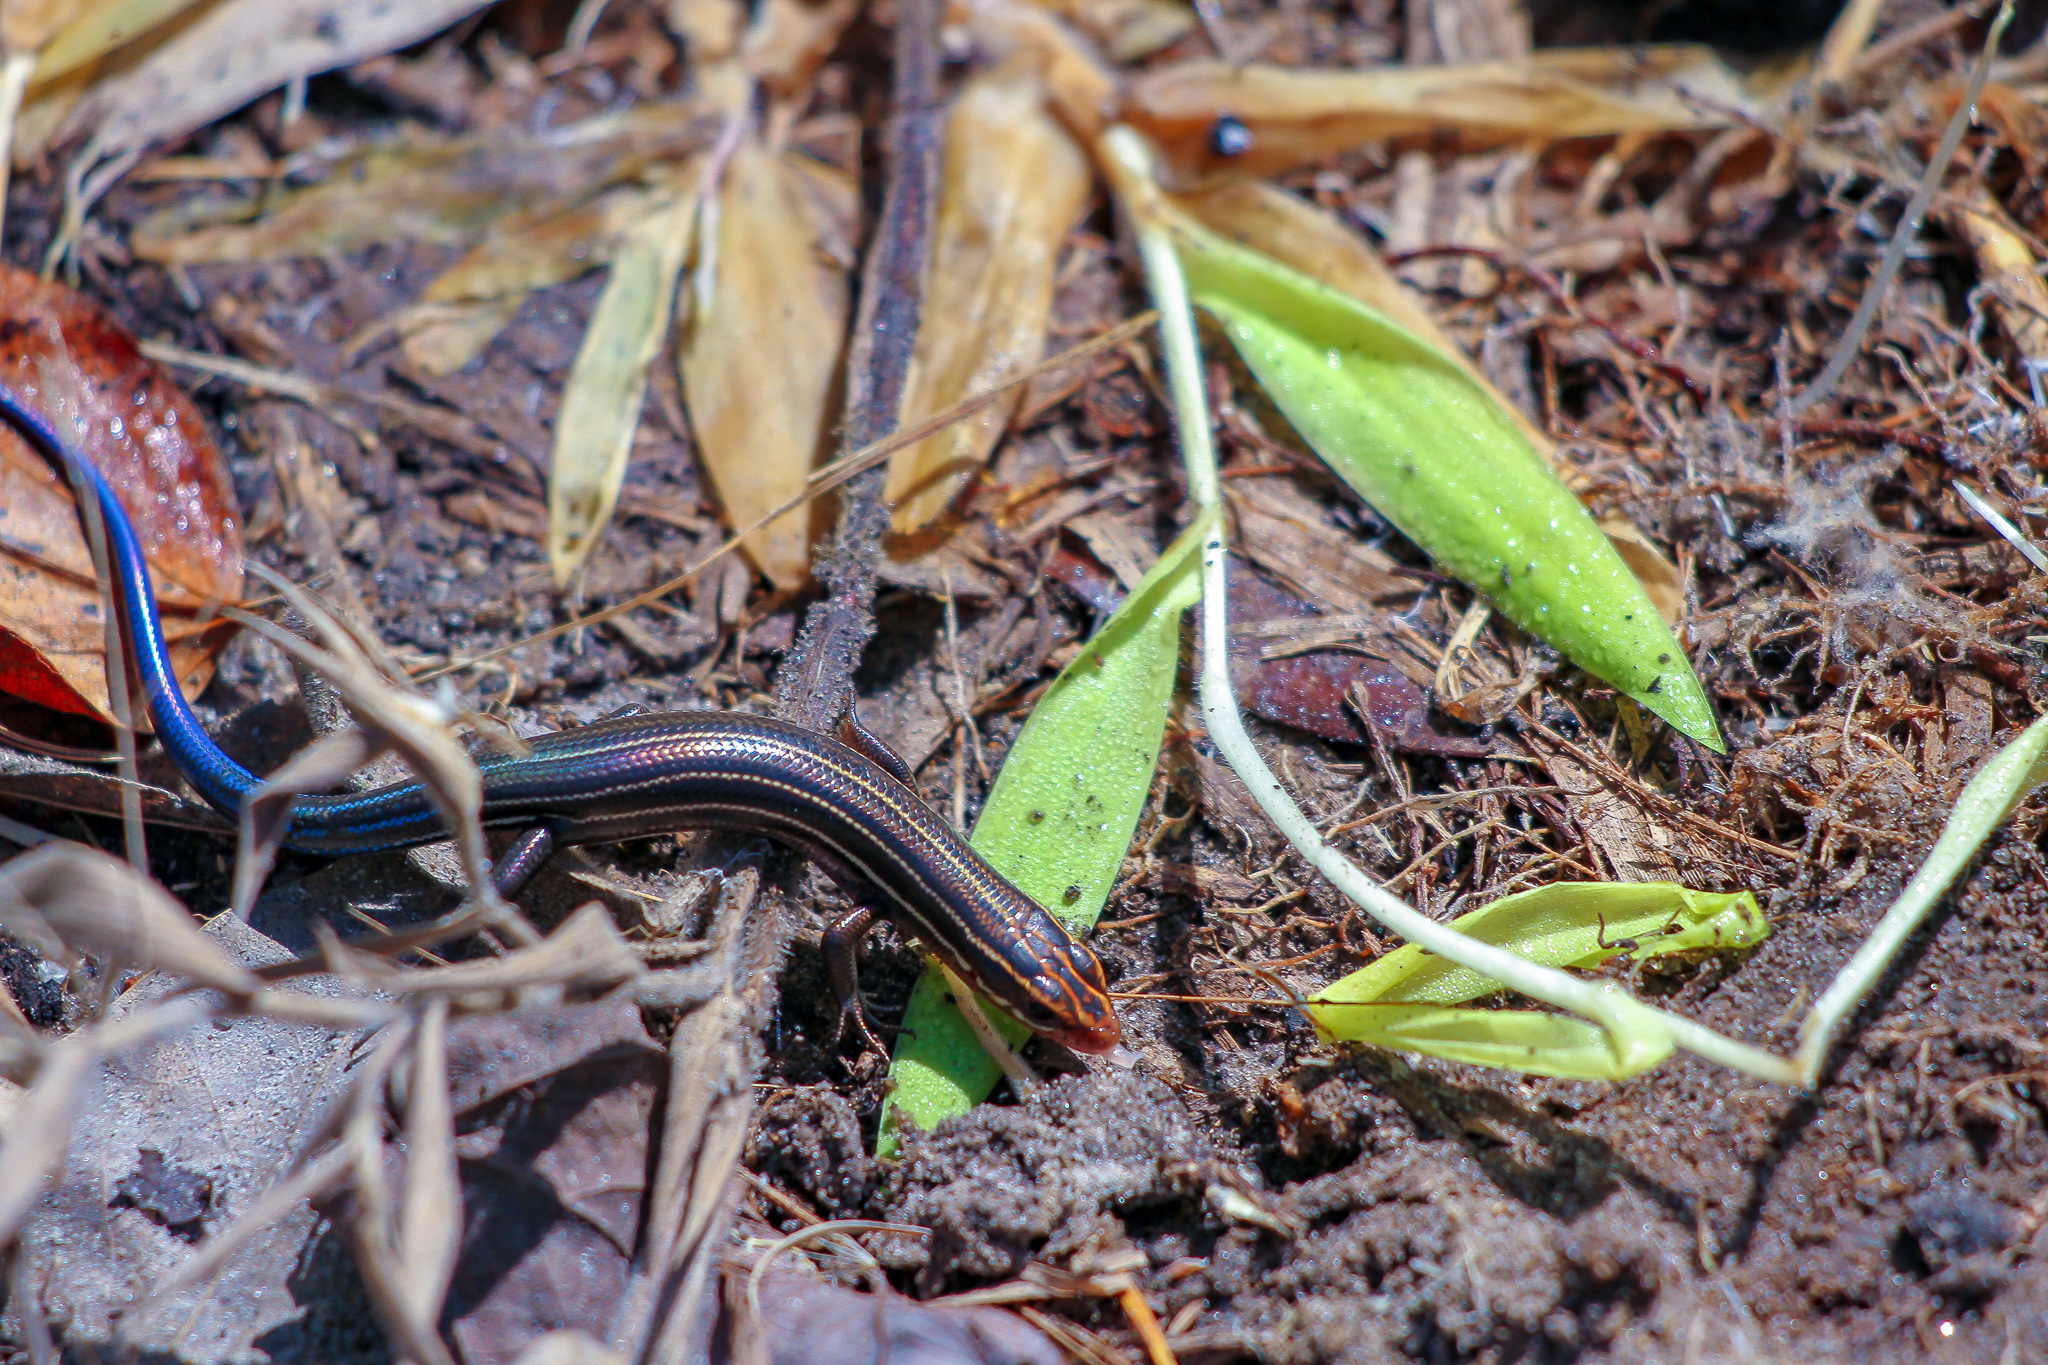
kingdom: Animalia
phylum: Chordata
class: Squamata
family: Scincidae
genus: Plestiodon
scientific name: Plestiodon inexpectatus
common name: Southeastern five-lined skink
